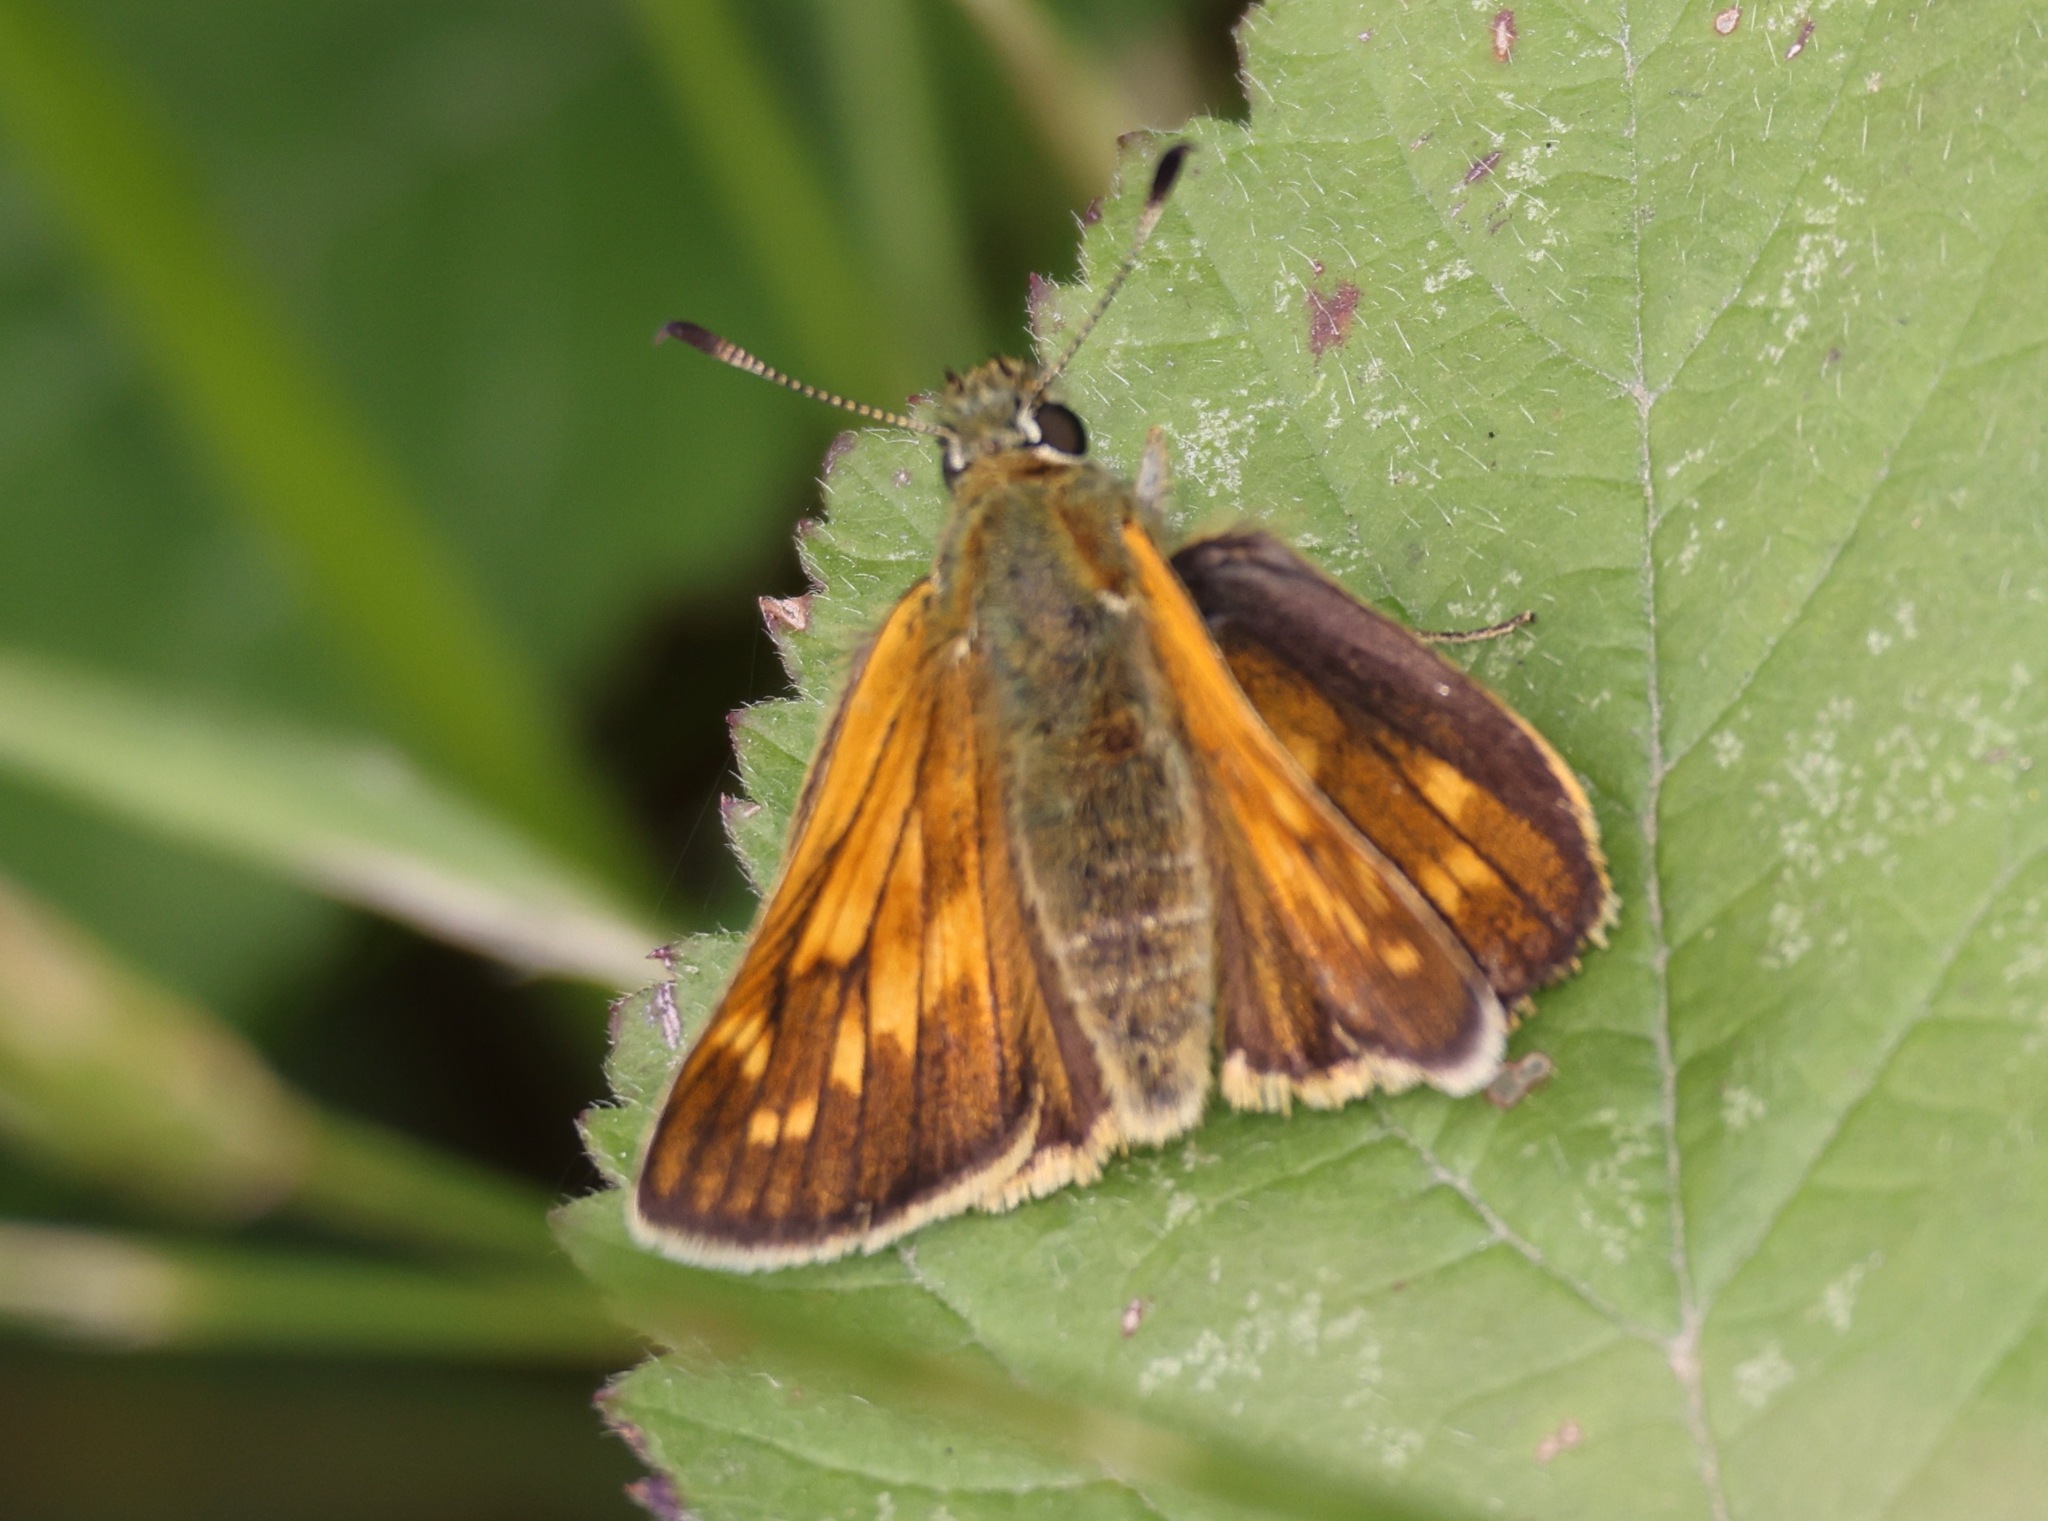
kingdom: Animalia
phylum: Arthropoda
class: Insecta
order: Lepidoptera
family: Hesperiidae
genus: Ochlodes
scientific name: Ochlodes venata
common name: Large skipper
